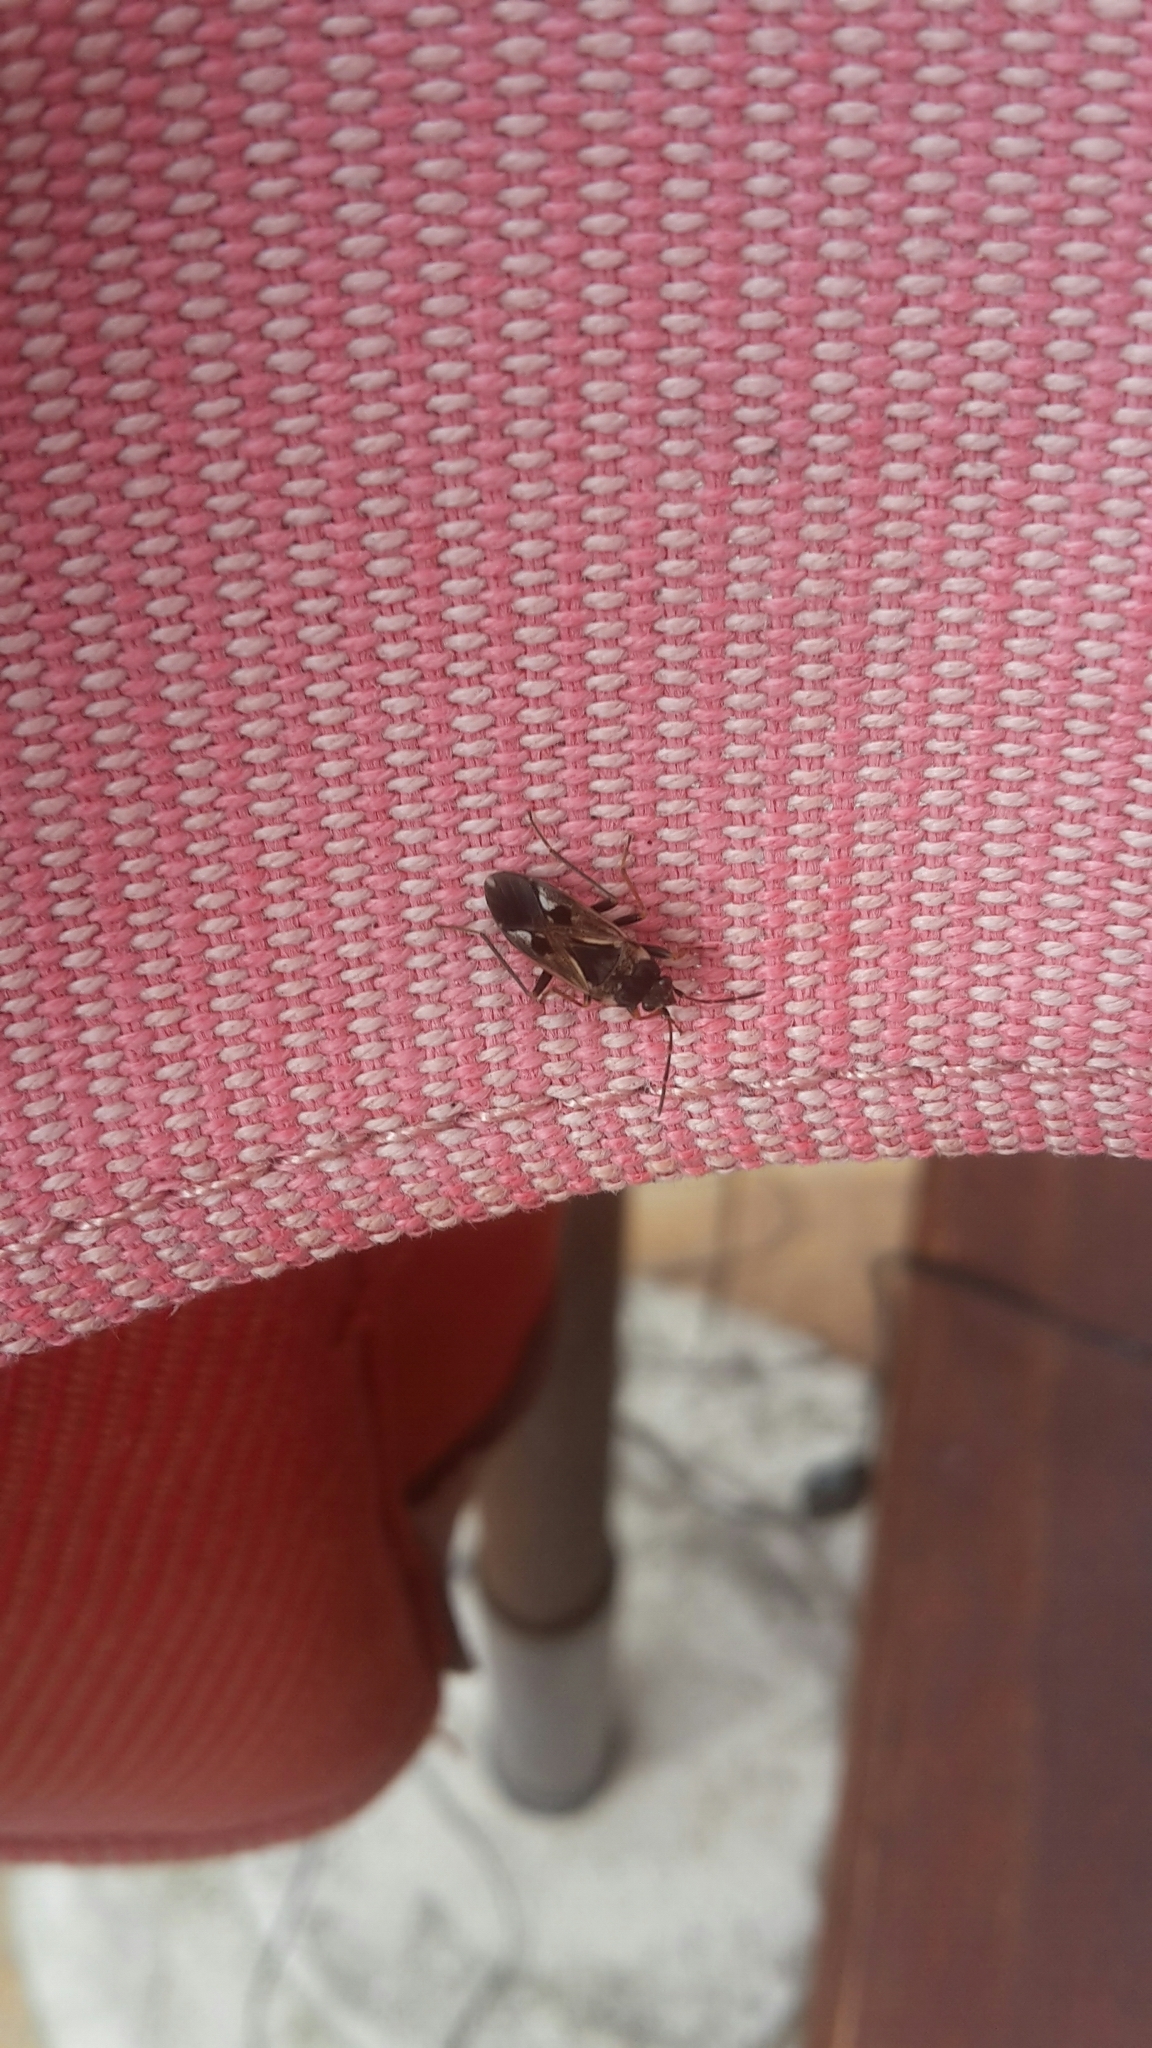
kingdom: Animalia
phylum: Arthropoda
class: Insecta
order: Hemiptera
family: Rhyparochromidae
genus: Rhyparochromus
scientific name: Rhyparochromus vulgaris
